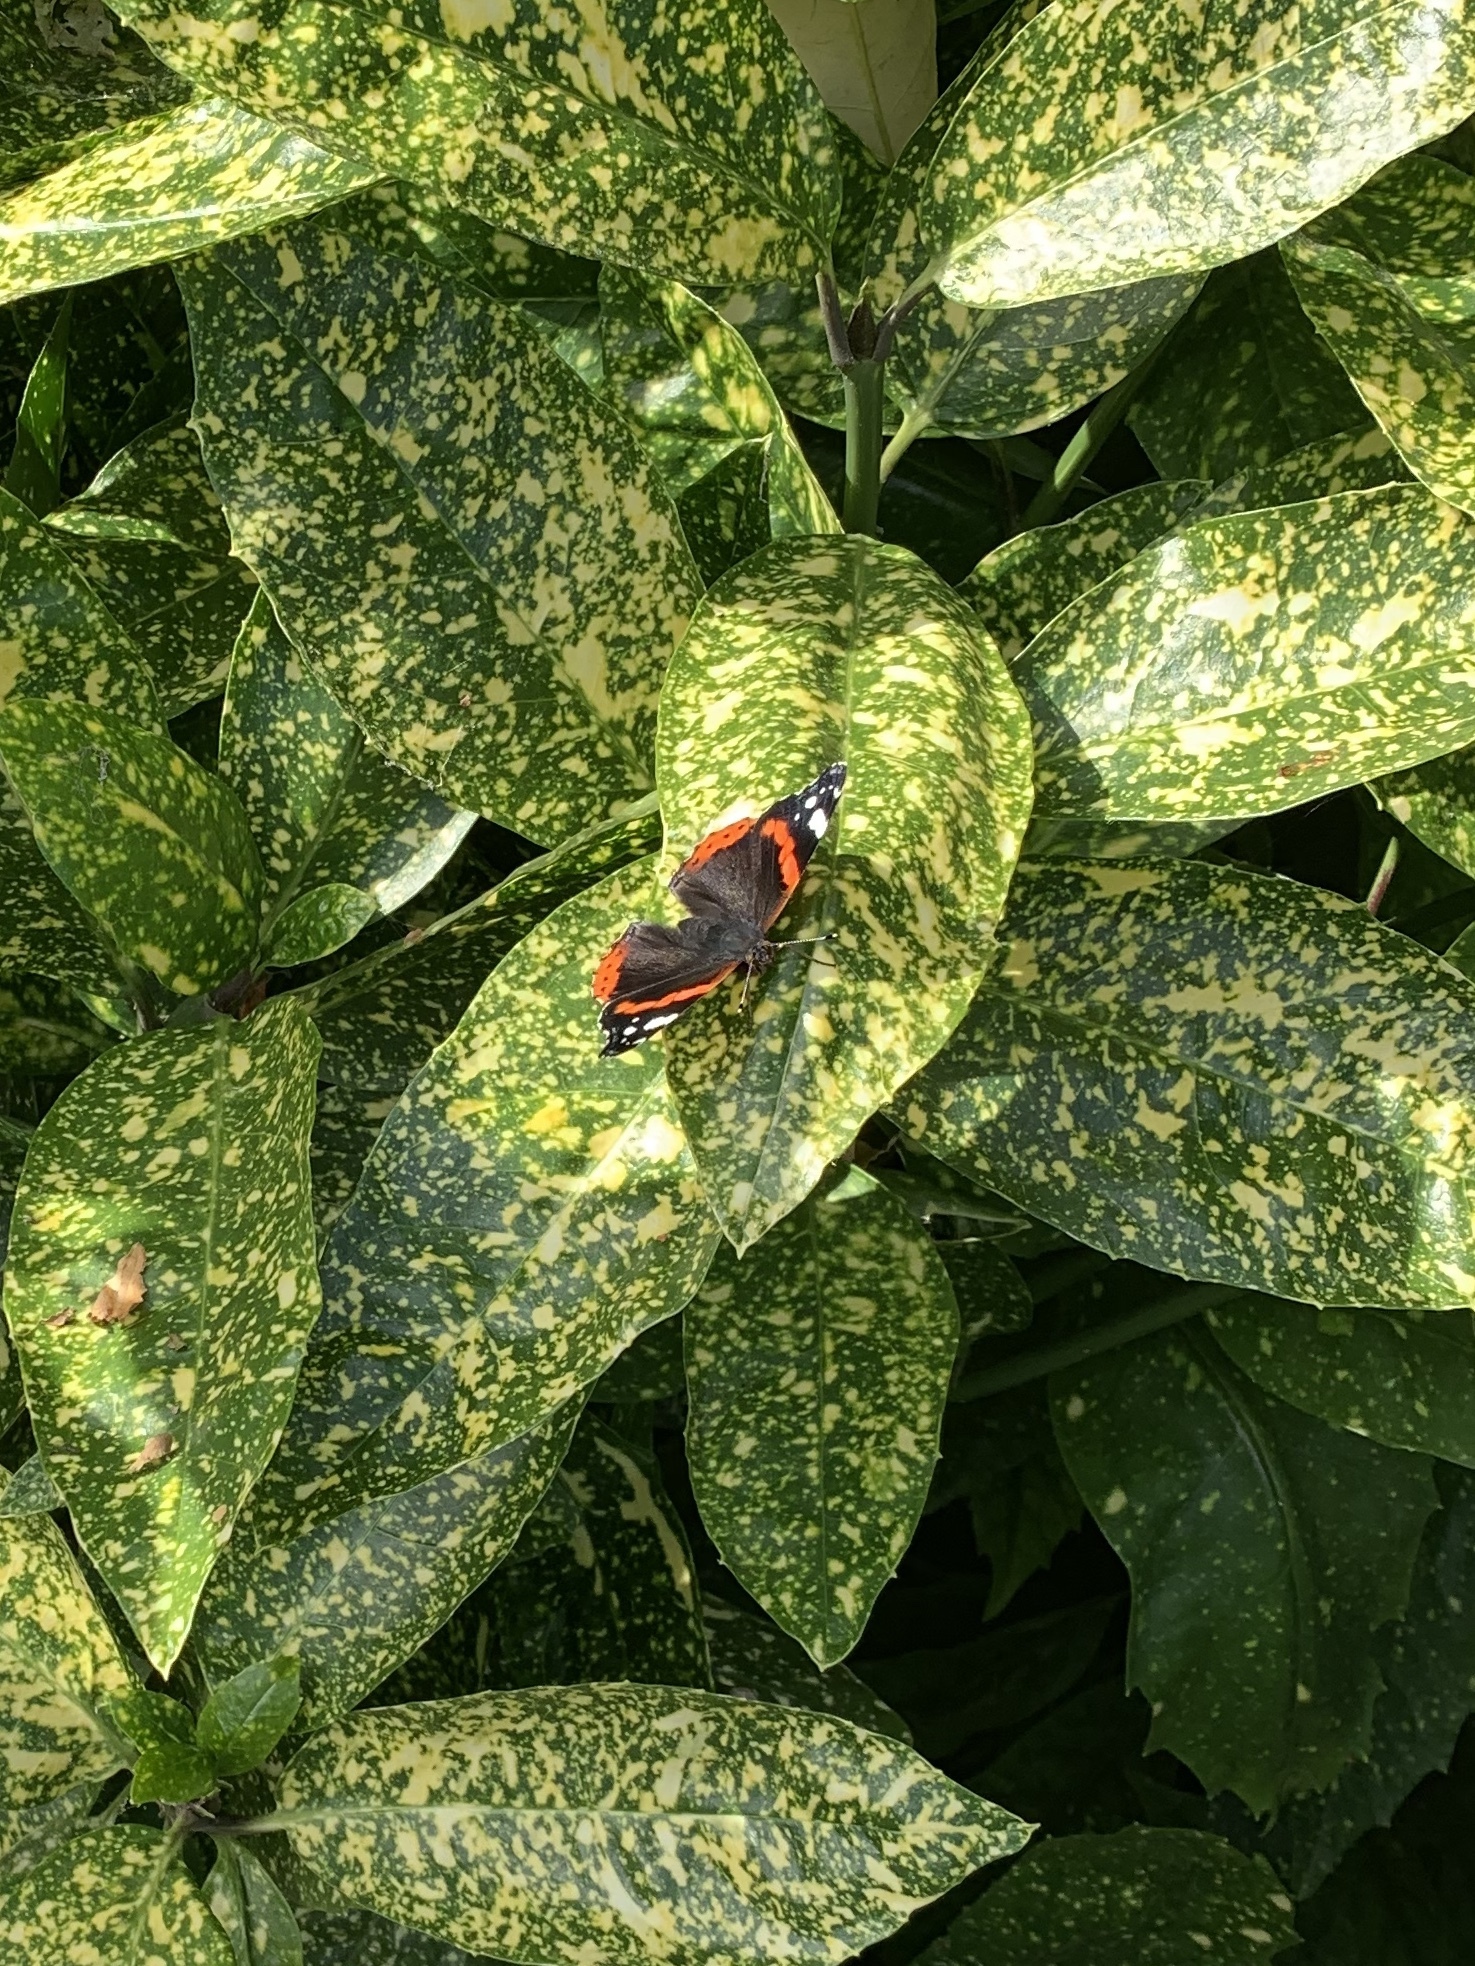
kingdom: Animalia
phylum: Arthropoda
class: Insecta
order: Lepidoptera
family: Nymphalidae
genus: Vanessa
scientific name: Vanessa atalanta
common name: Red admiral
